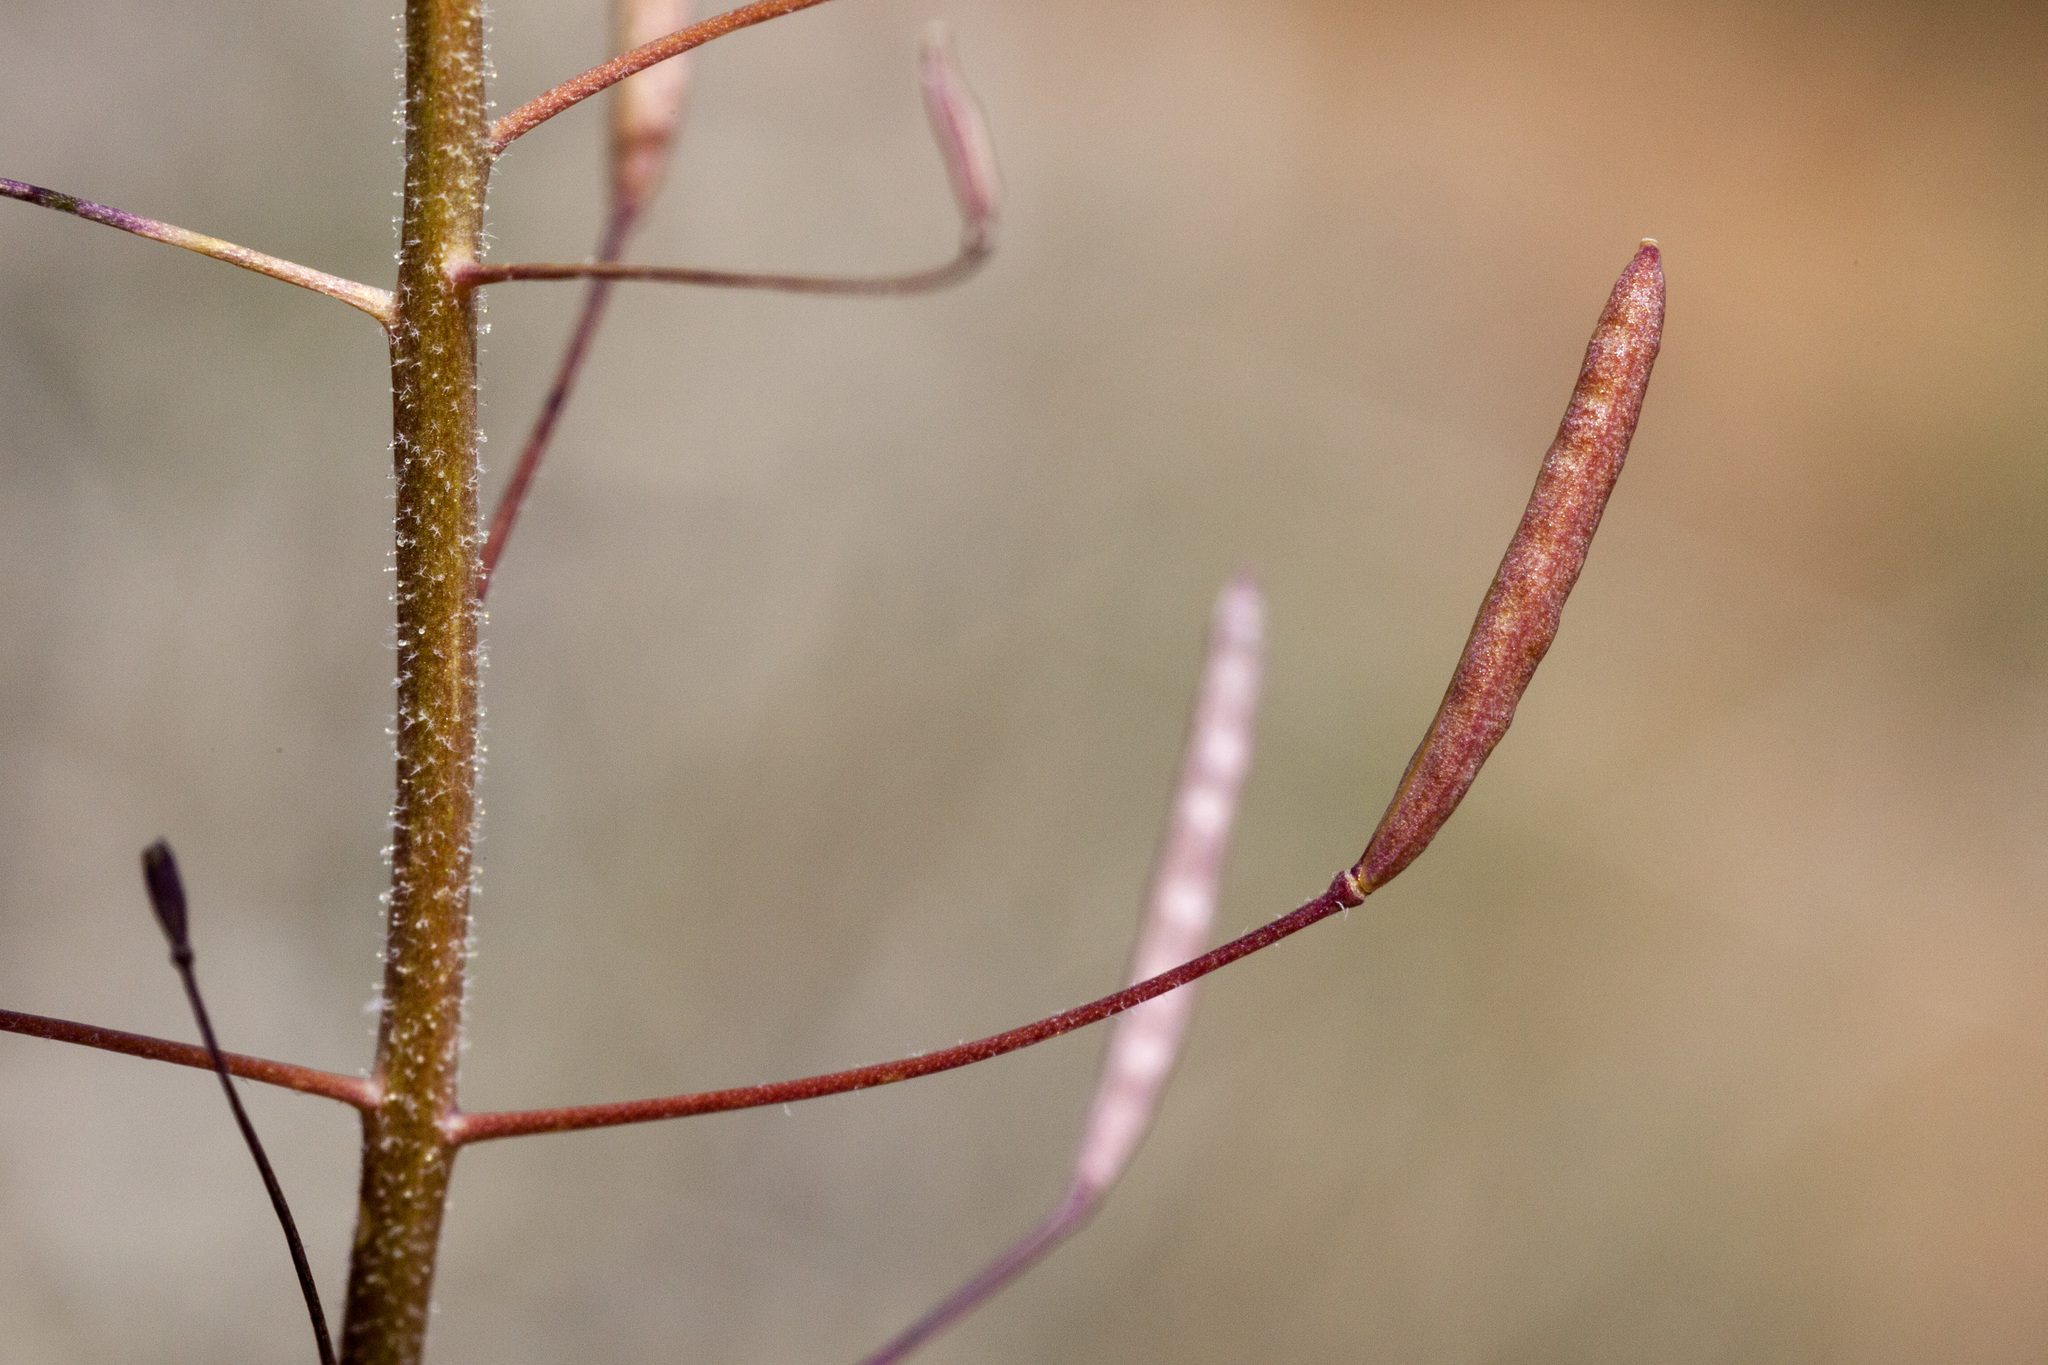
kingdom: Plantae
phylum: Tracheophyta
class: Magnoliopsida
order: Brassicales
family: Brassicaceae
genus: Descurainia
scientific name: Descurainia pinnata
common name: Western tansy mustard
